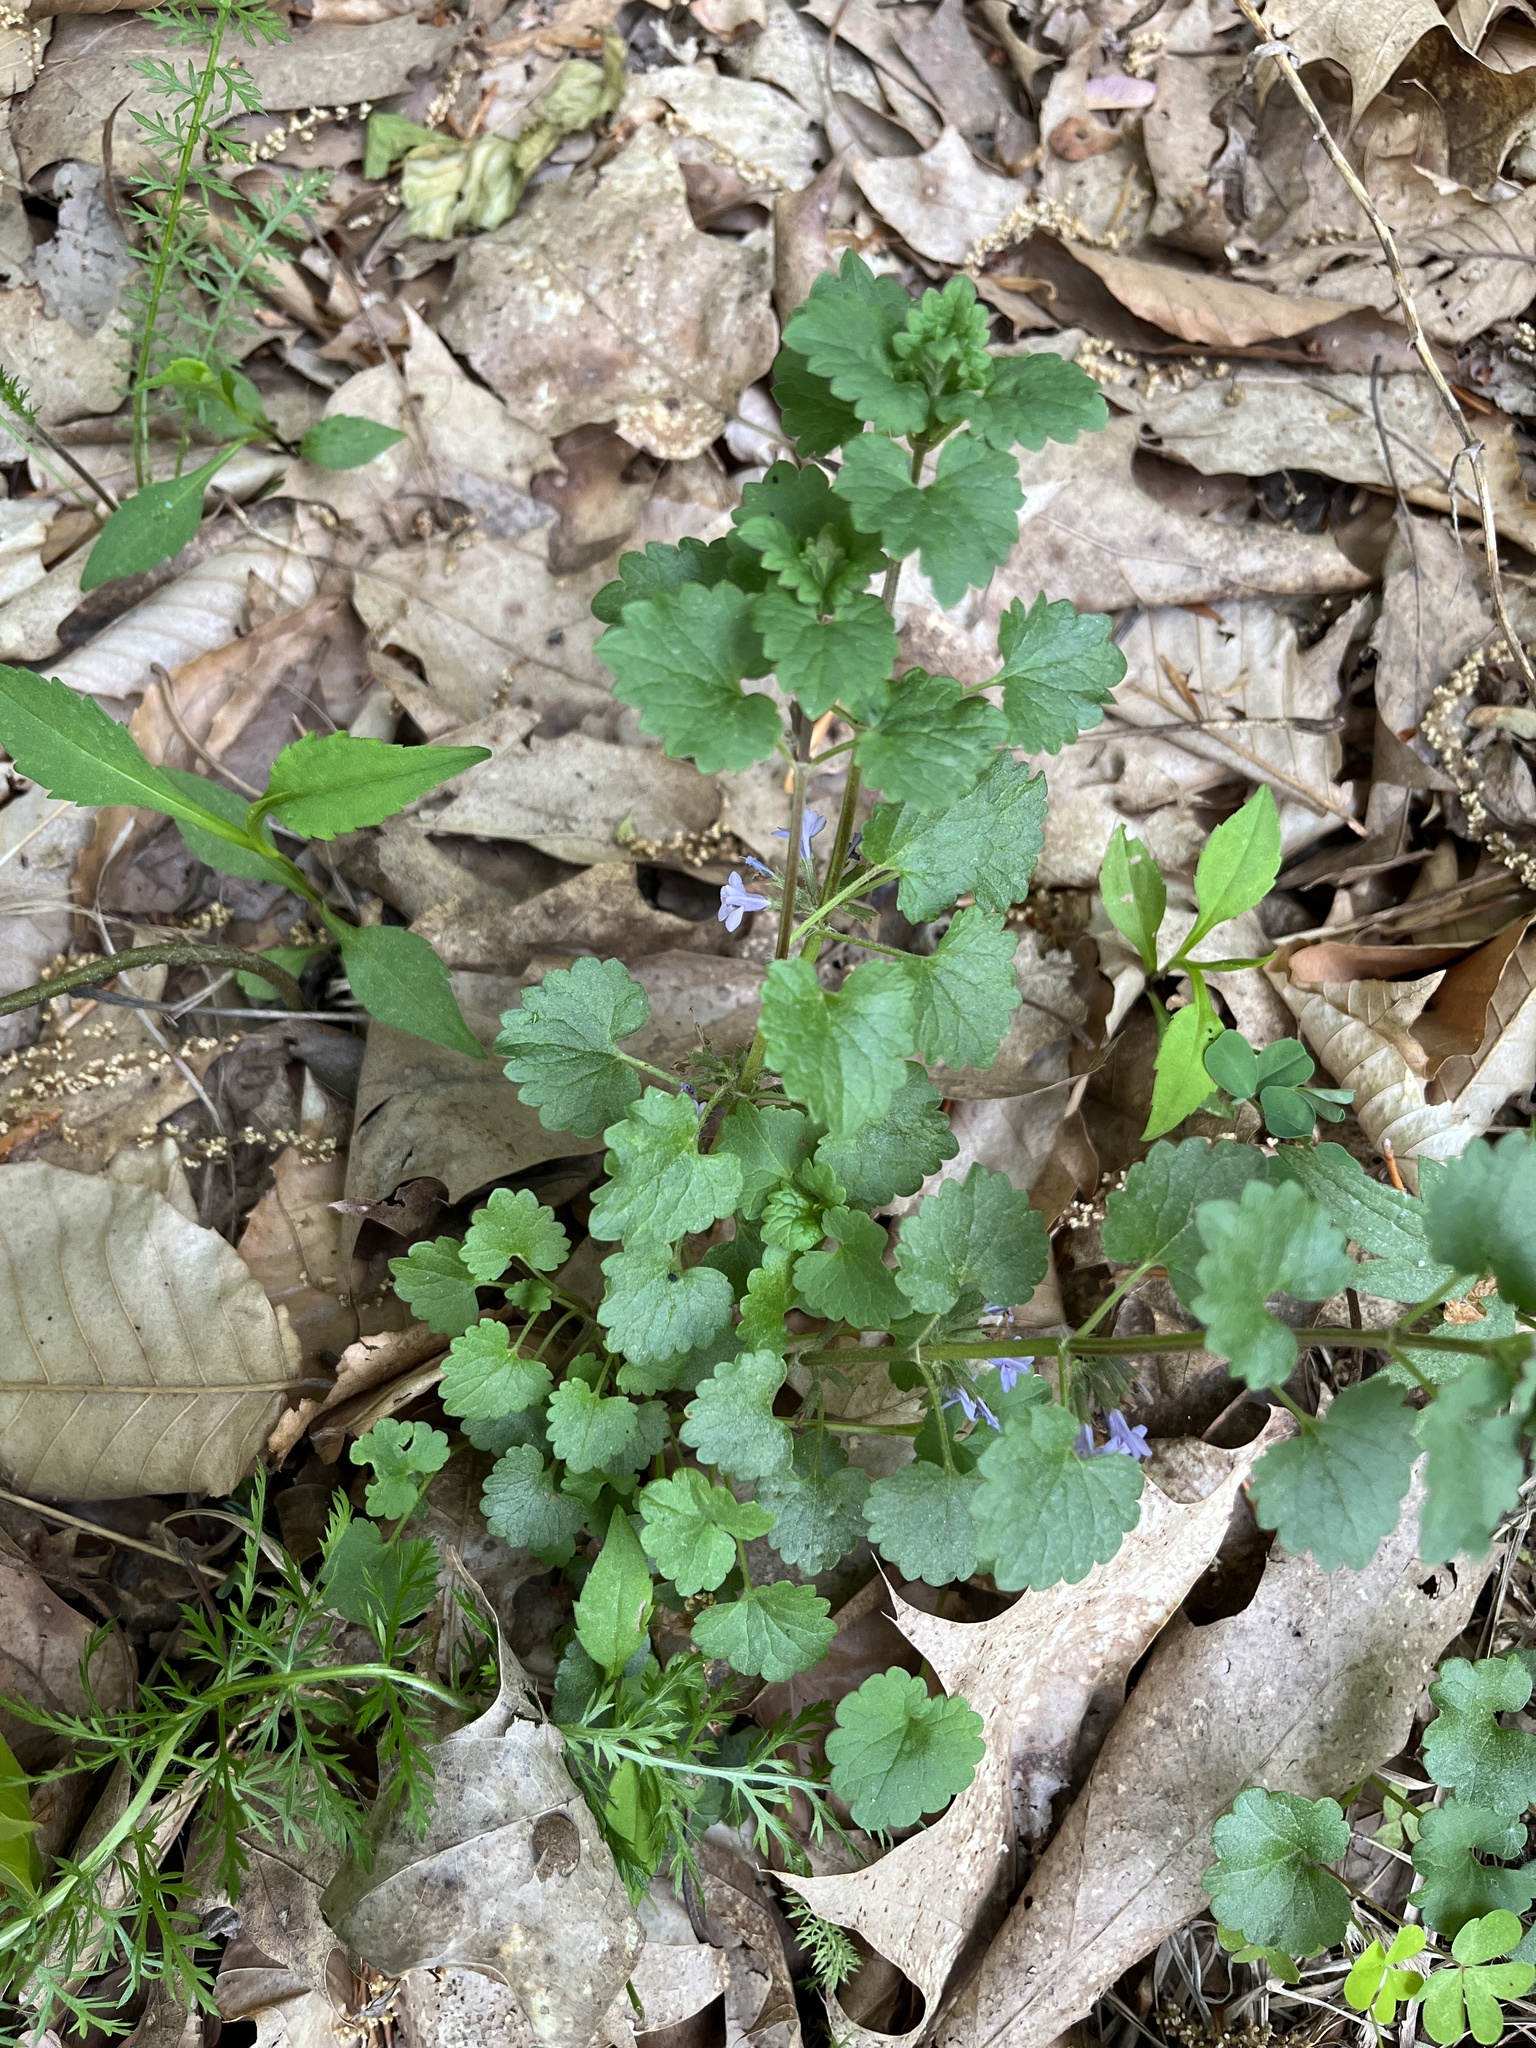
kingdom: Plantae
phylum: Tracheophyta
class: Magnoliopsida
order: Lamiales
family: Lamiaceae
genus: Glechoma
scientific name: Glechoma hederacea
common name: Ground ivy
